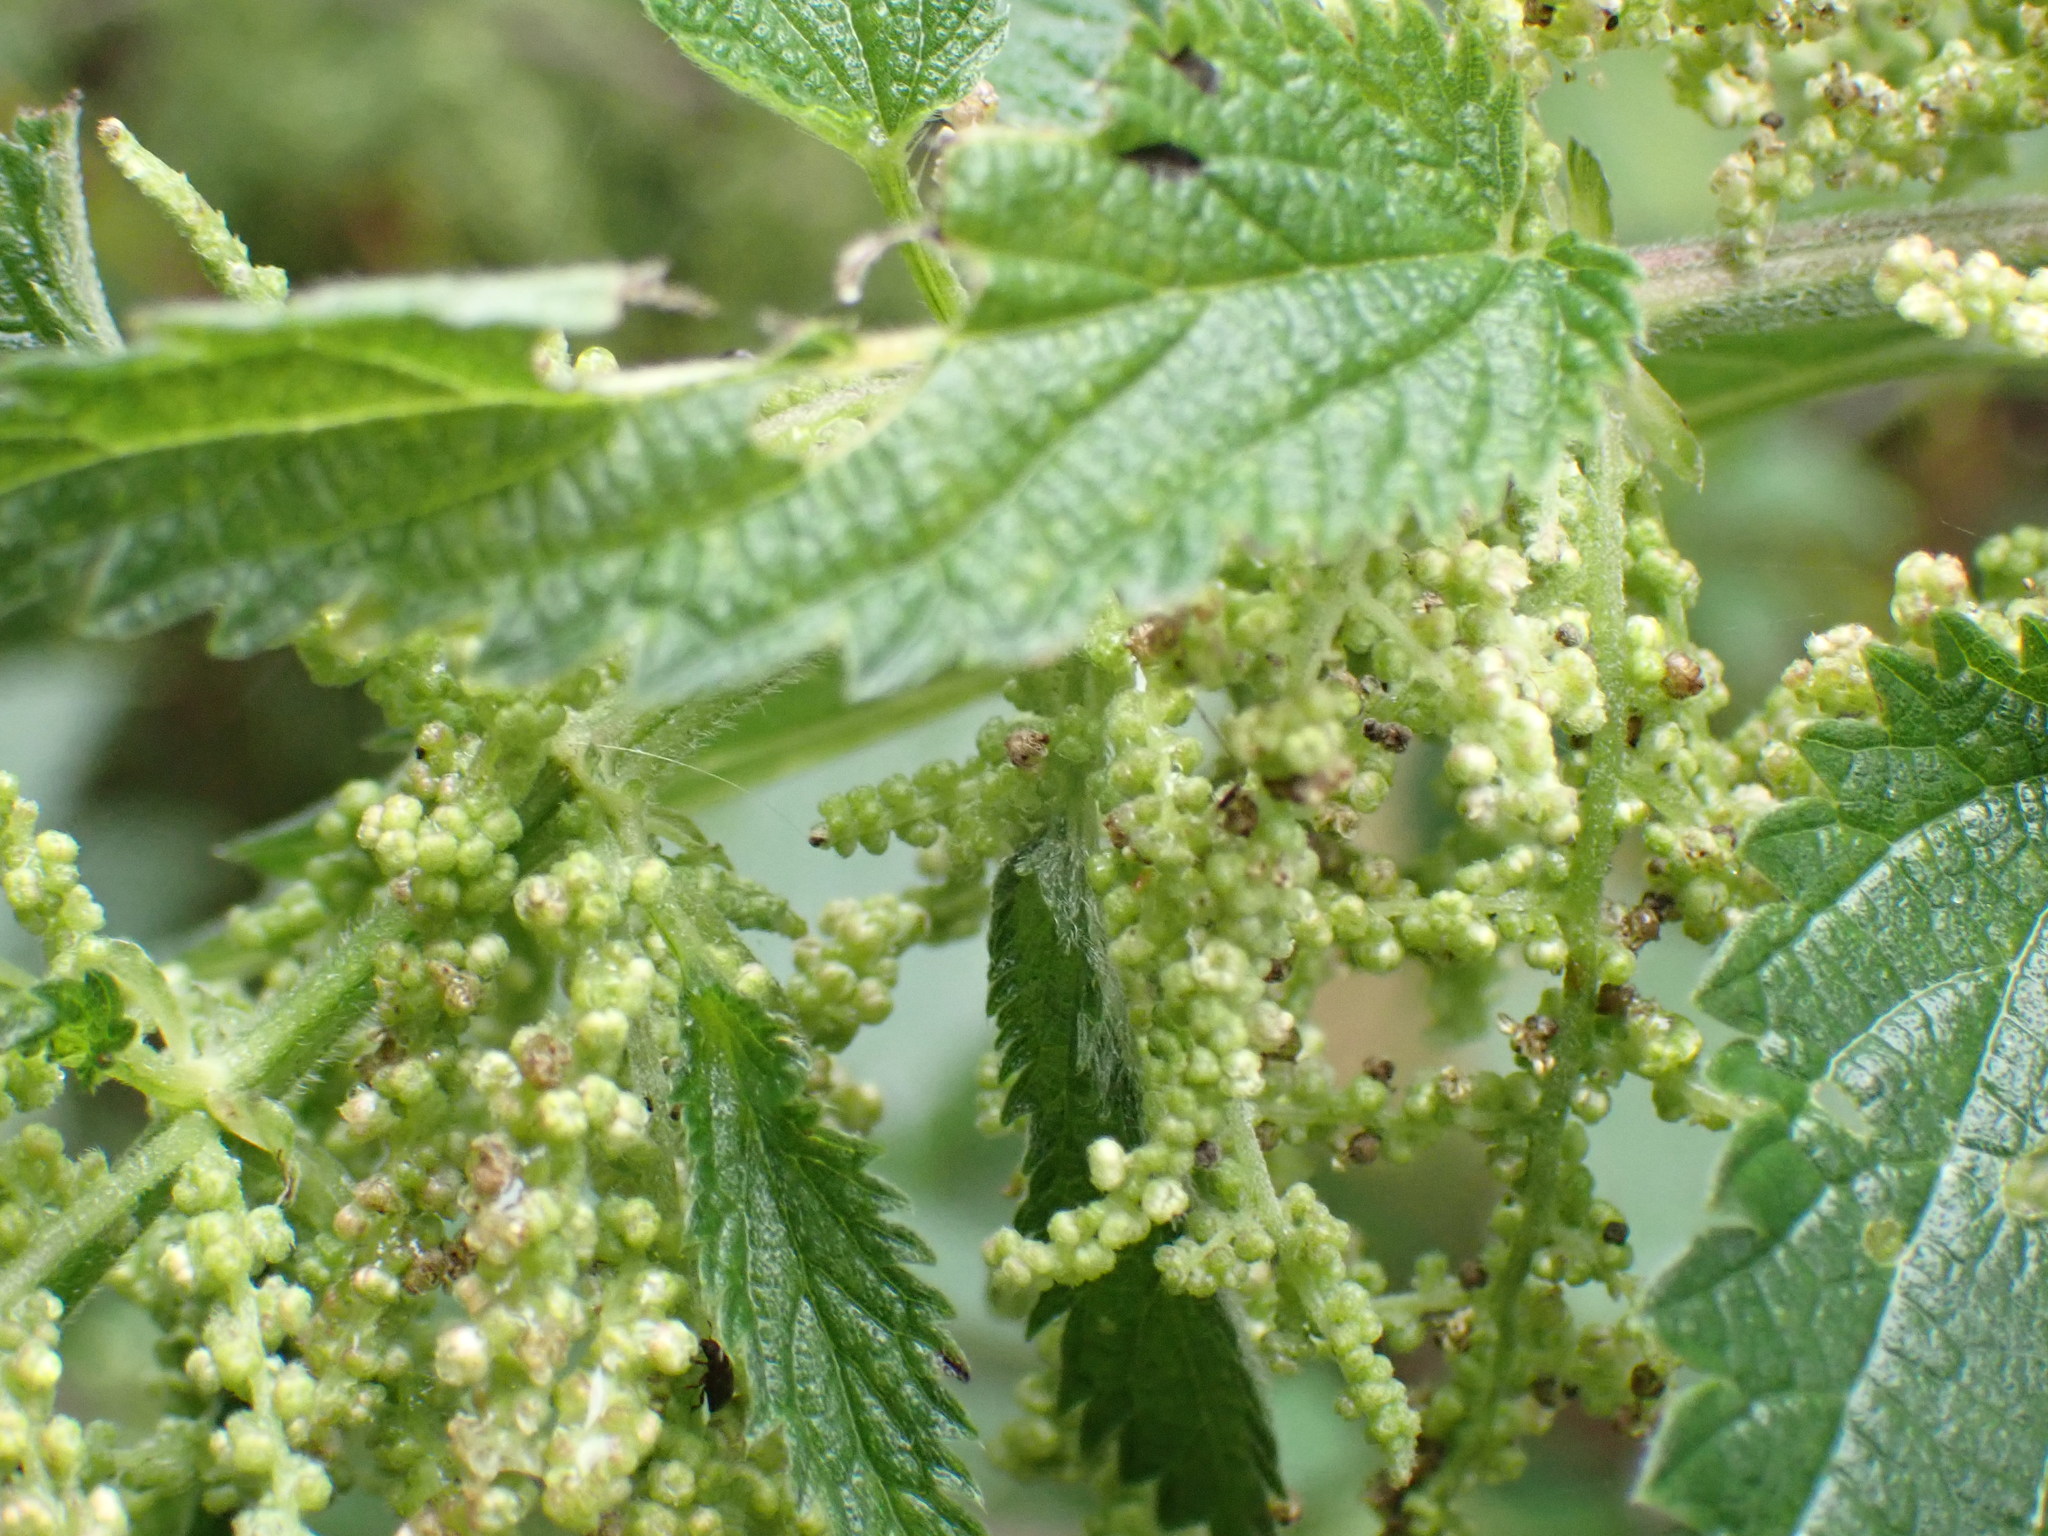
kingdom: Plantae
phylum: Tracheophyta
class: Magnoliopsida
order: Rosales
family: Urticaceae
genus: Urtica
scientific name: Urtica dioica
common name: Common nettle
